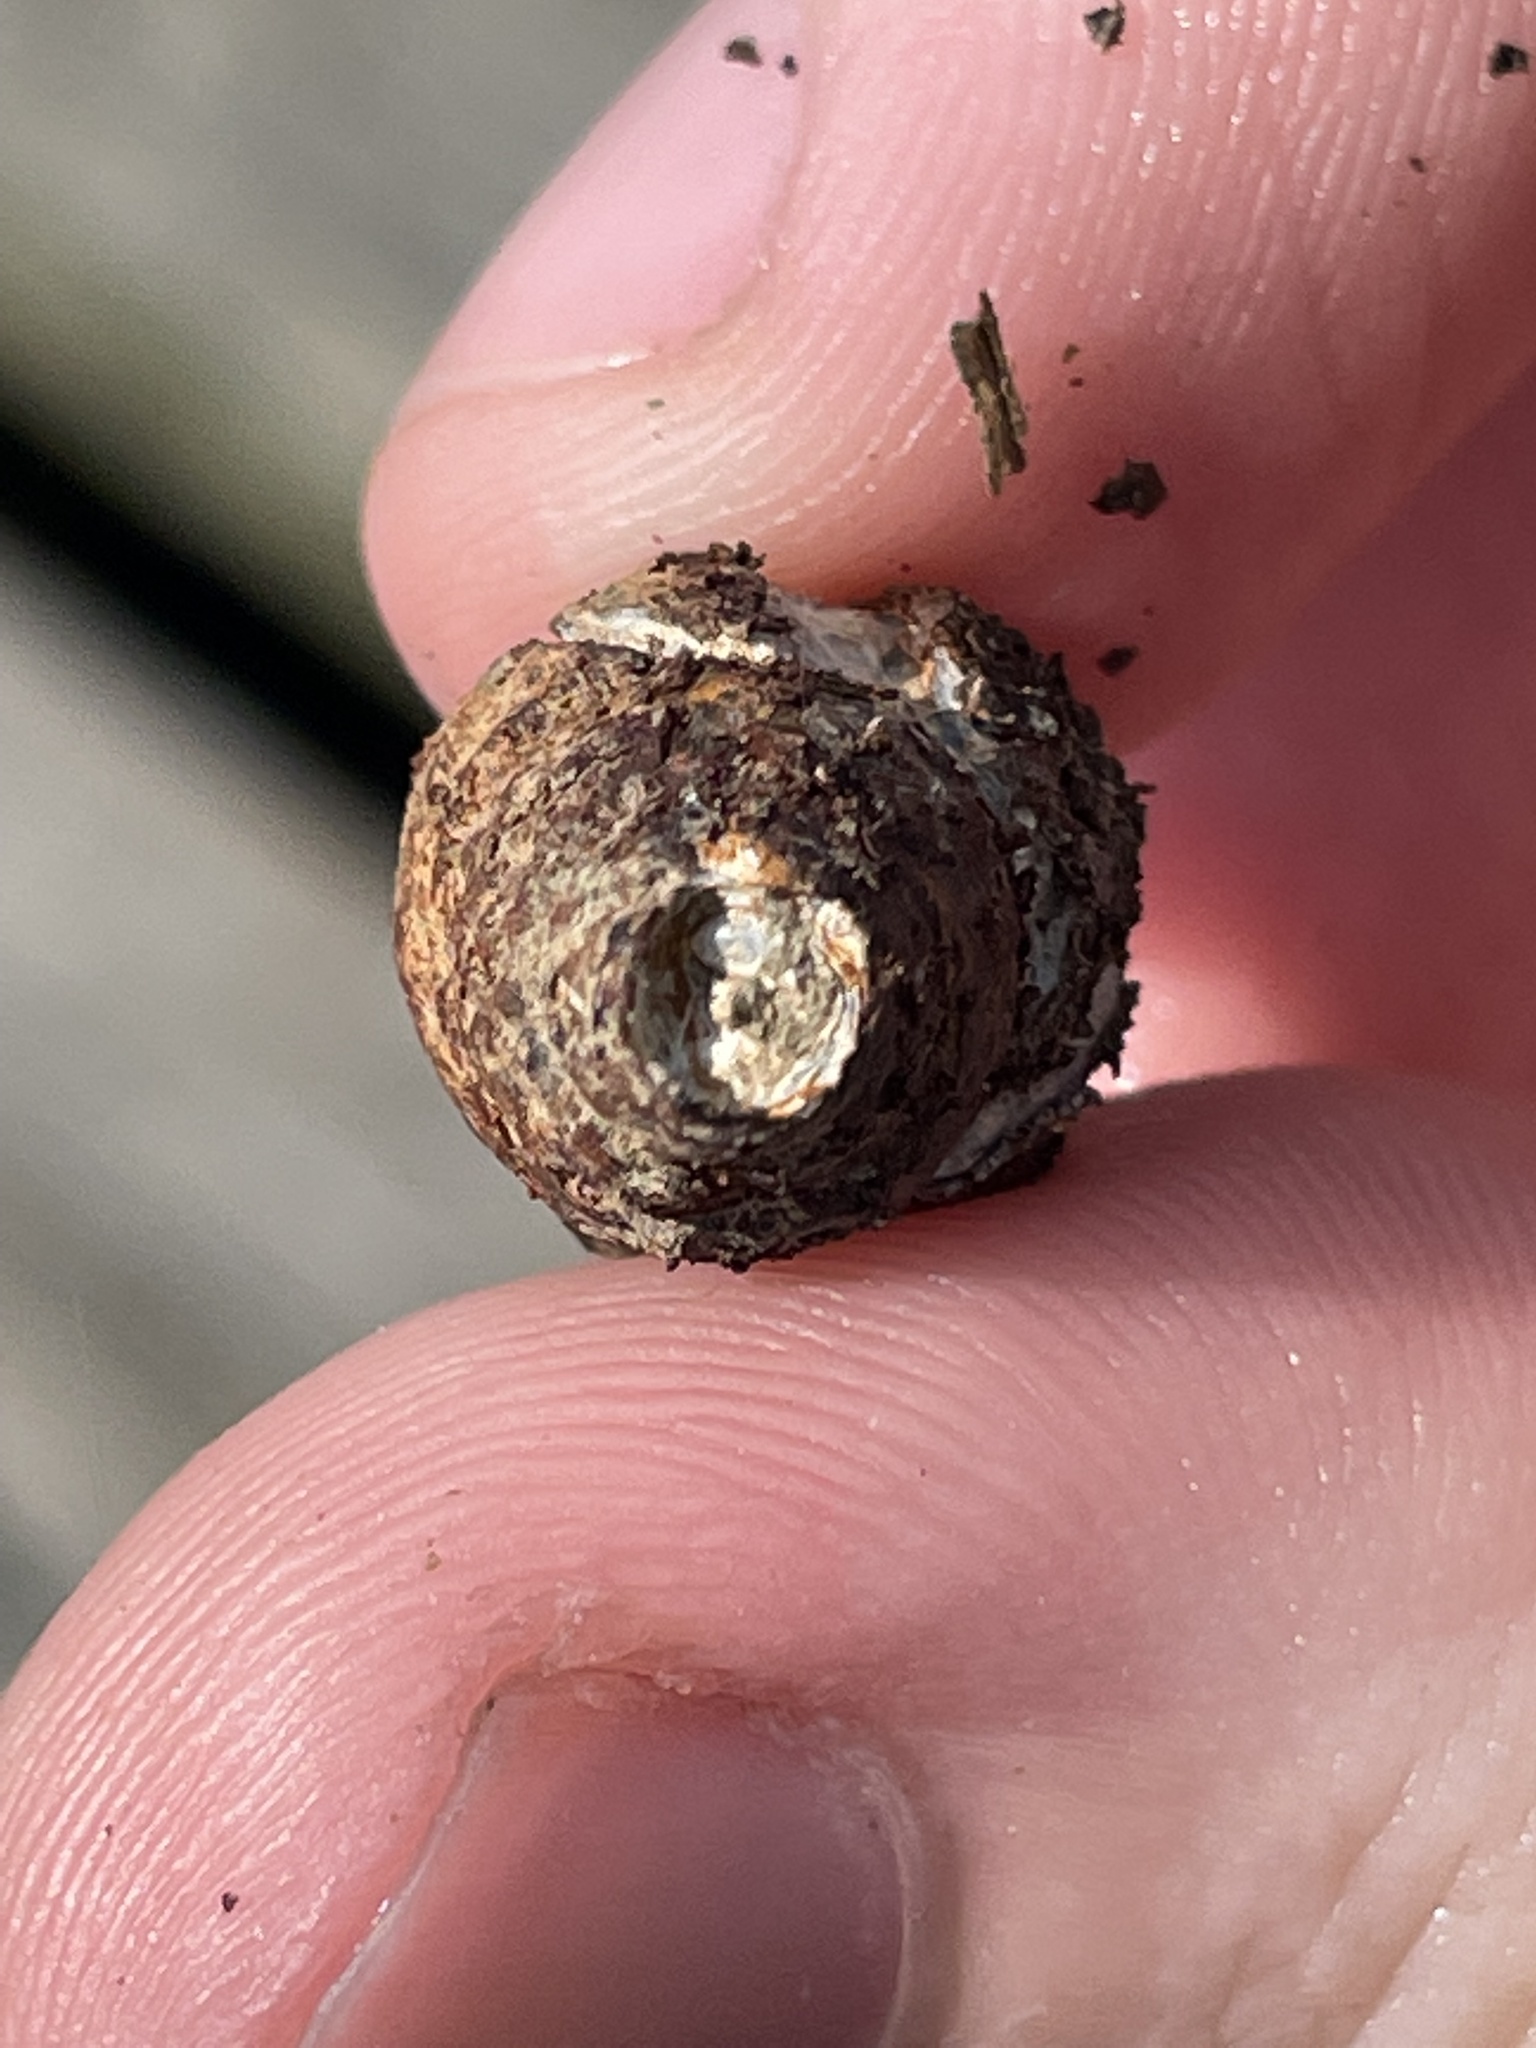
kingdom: Animalia
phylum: Mollusca
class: Gastropoda
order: Neogastropoda
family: Nassariidae
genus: Ilyanassa
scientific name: Ilyanassa obsoleta
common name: Eastern mudsnail
